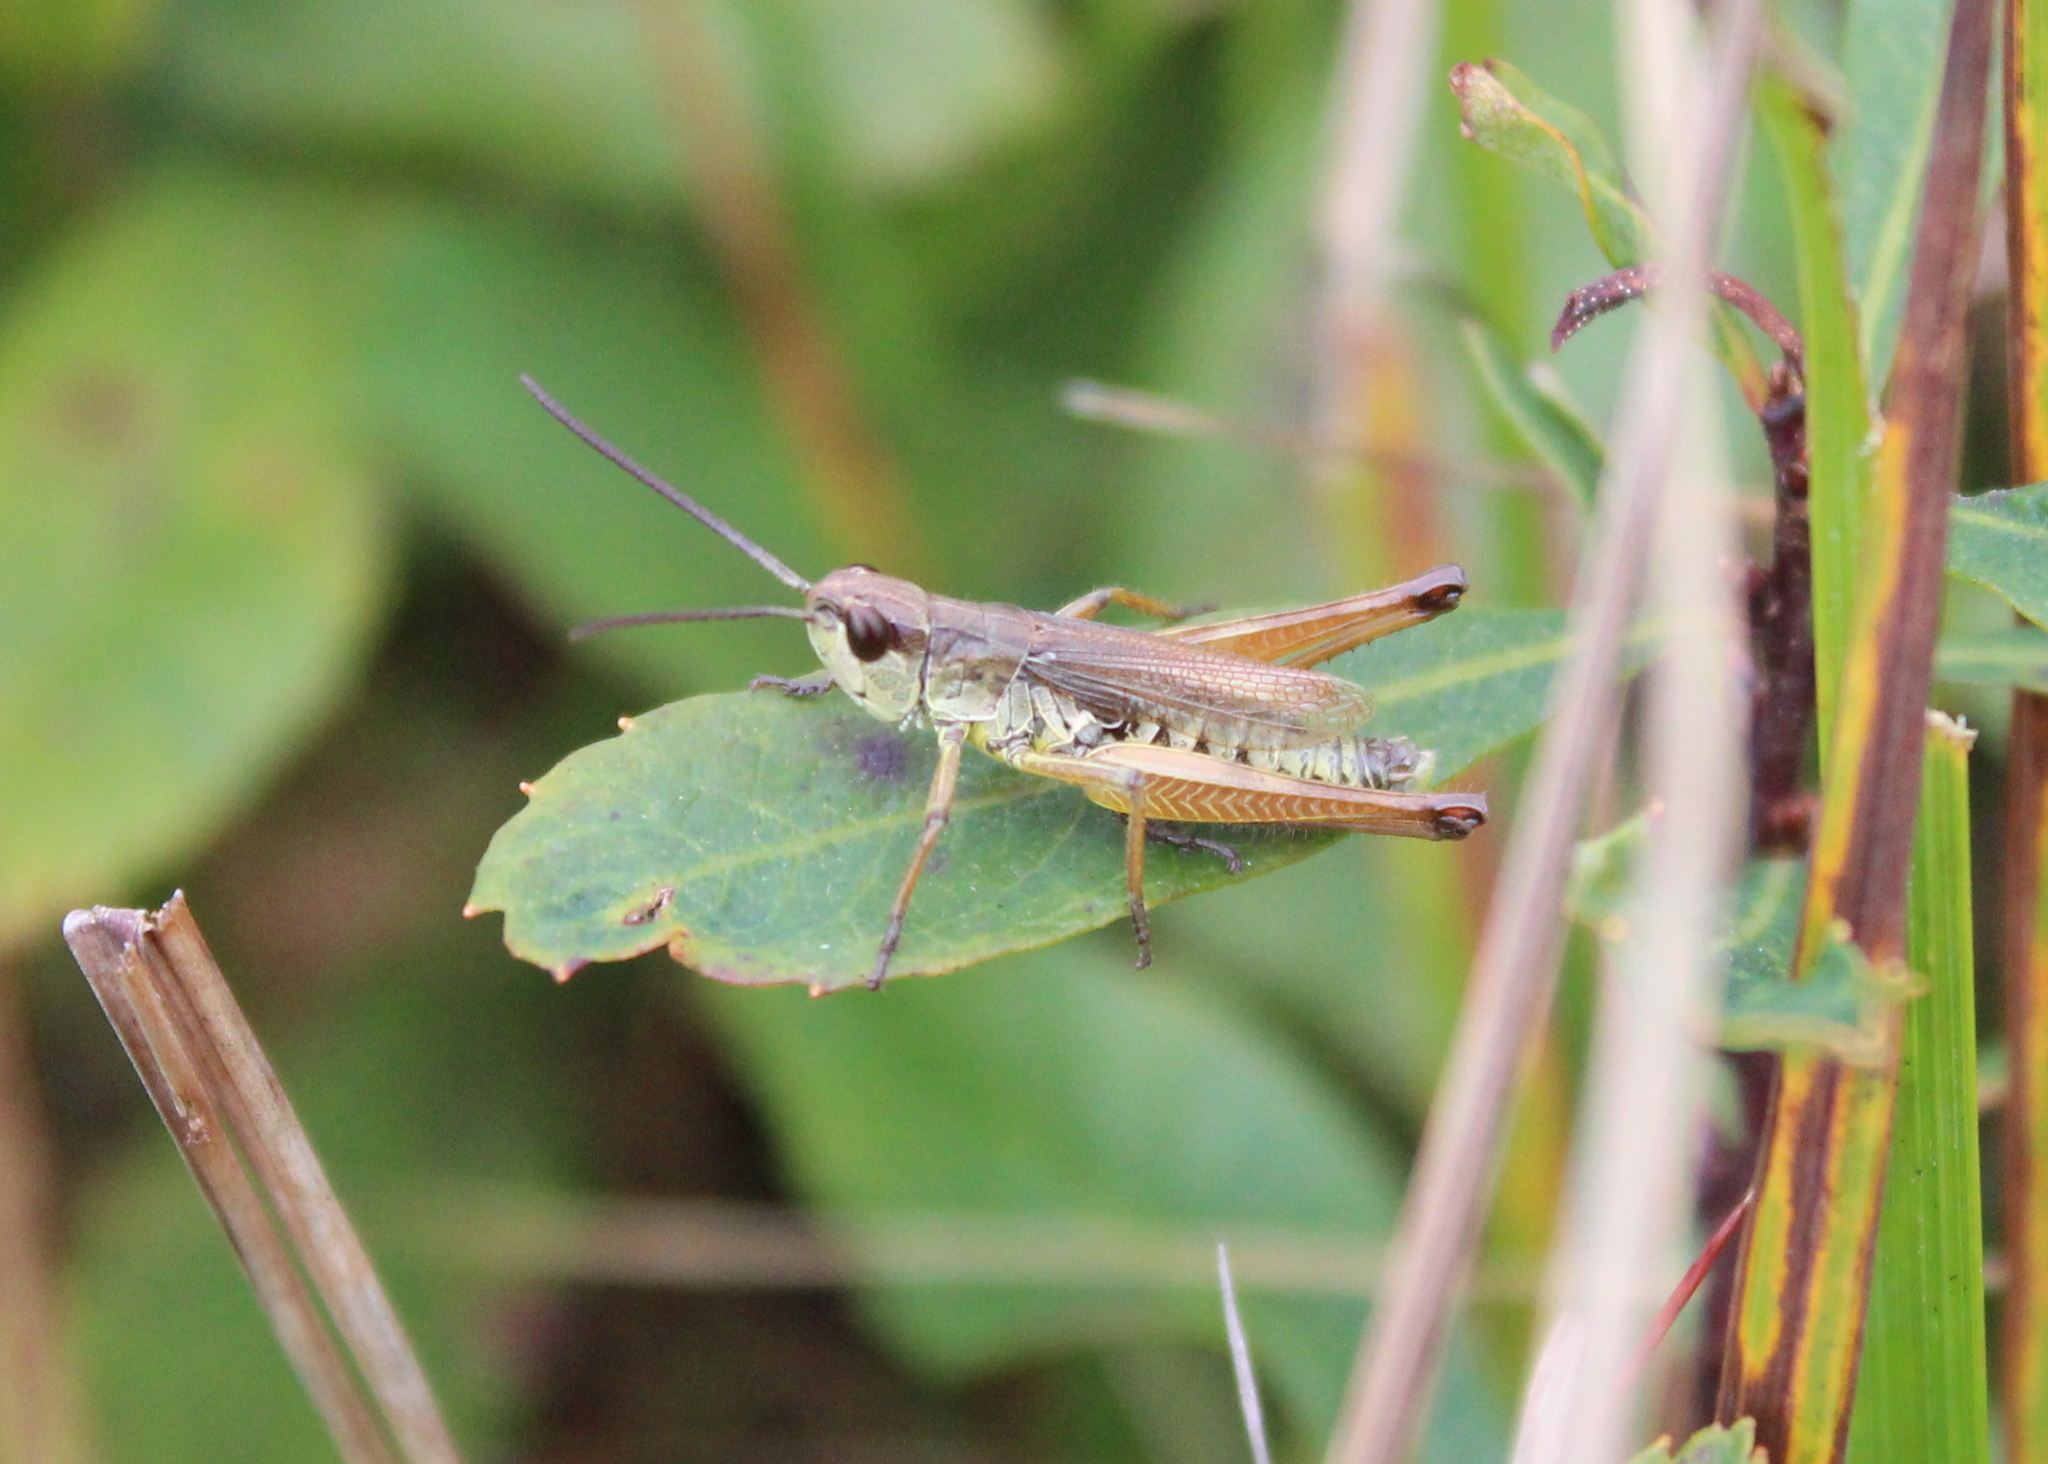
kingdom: Animalia
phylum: Arthropoda
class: Insecta
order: Orthoptera
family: Acrididae
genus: Pseudochorthippus
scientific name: Pseudochorthippus curtipennis
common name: Marsh meadow grasshopper
